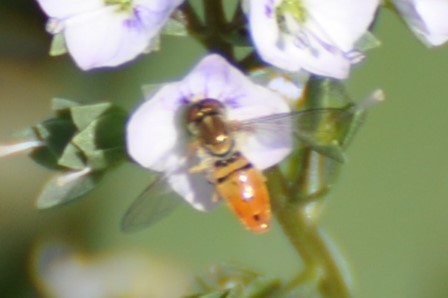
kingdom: Animalia
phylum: Arthropoda
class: Insecta
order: Diptera
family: Syrphidae
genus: Toxomerus
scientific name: Toxomerus marginatus
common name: Syrphid fly
